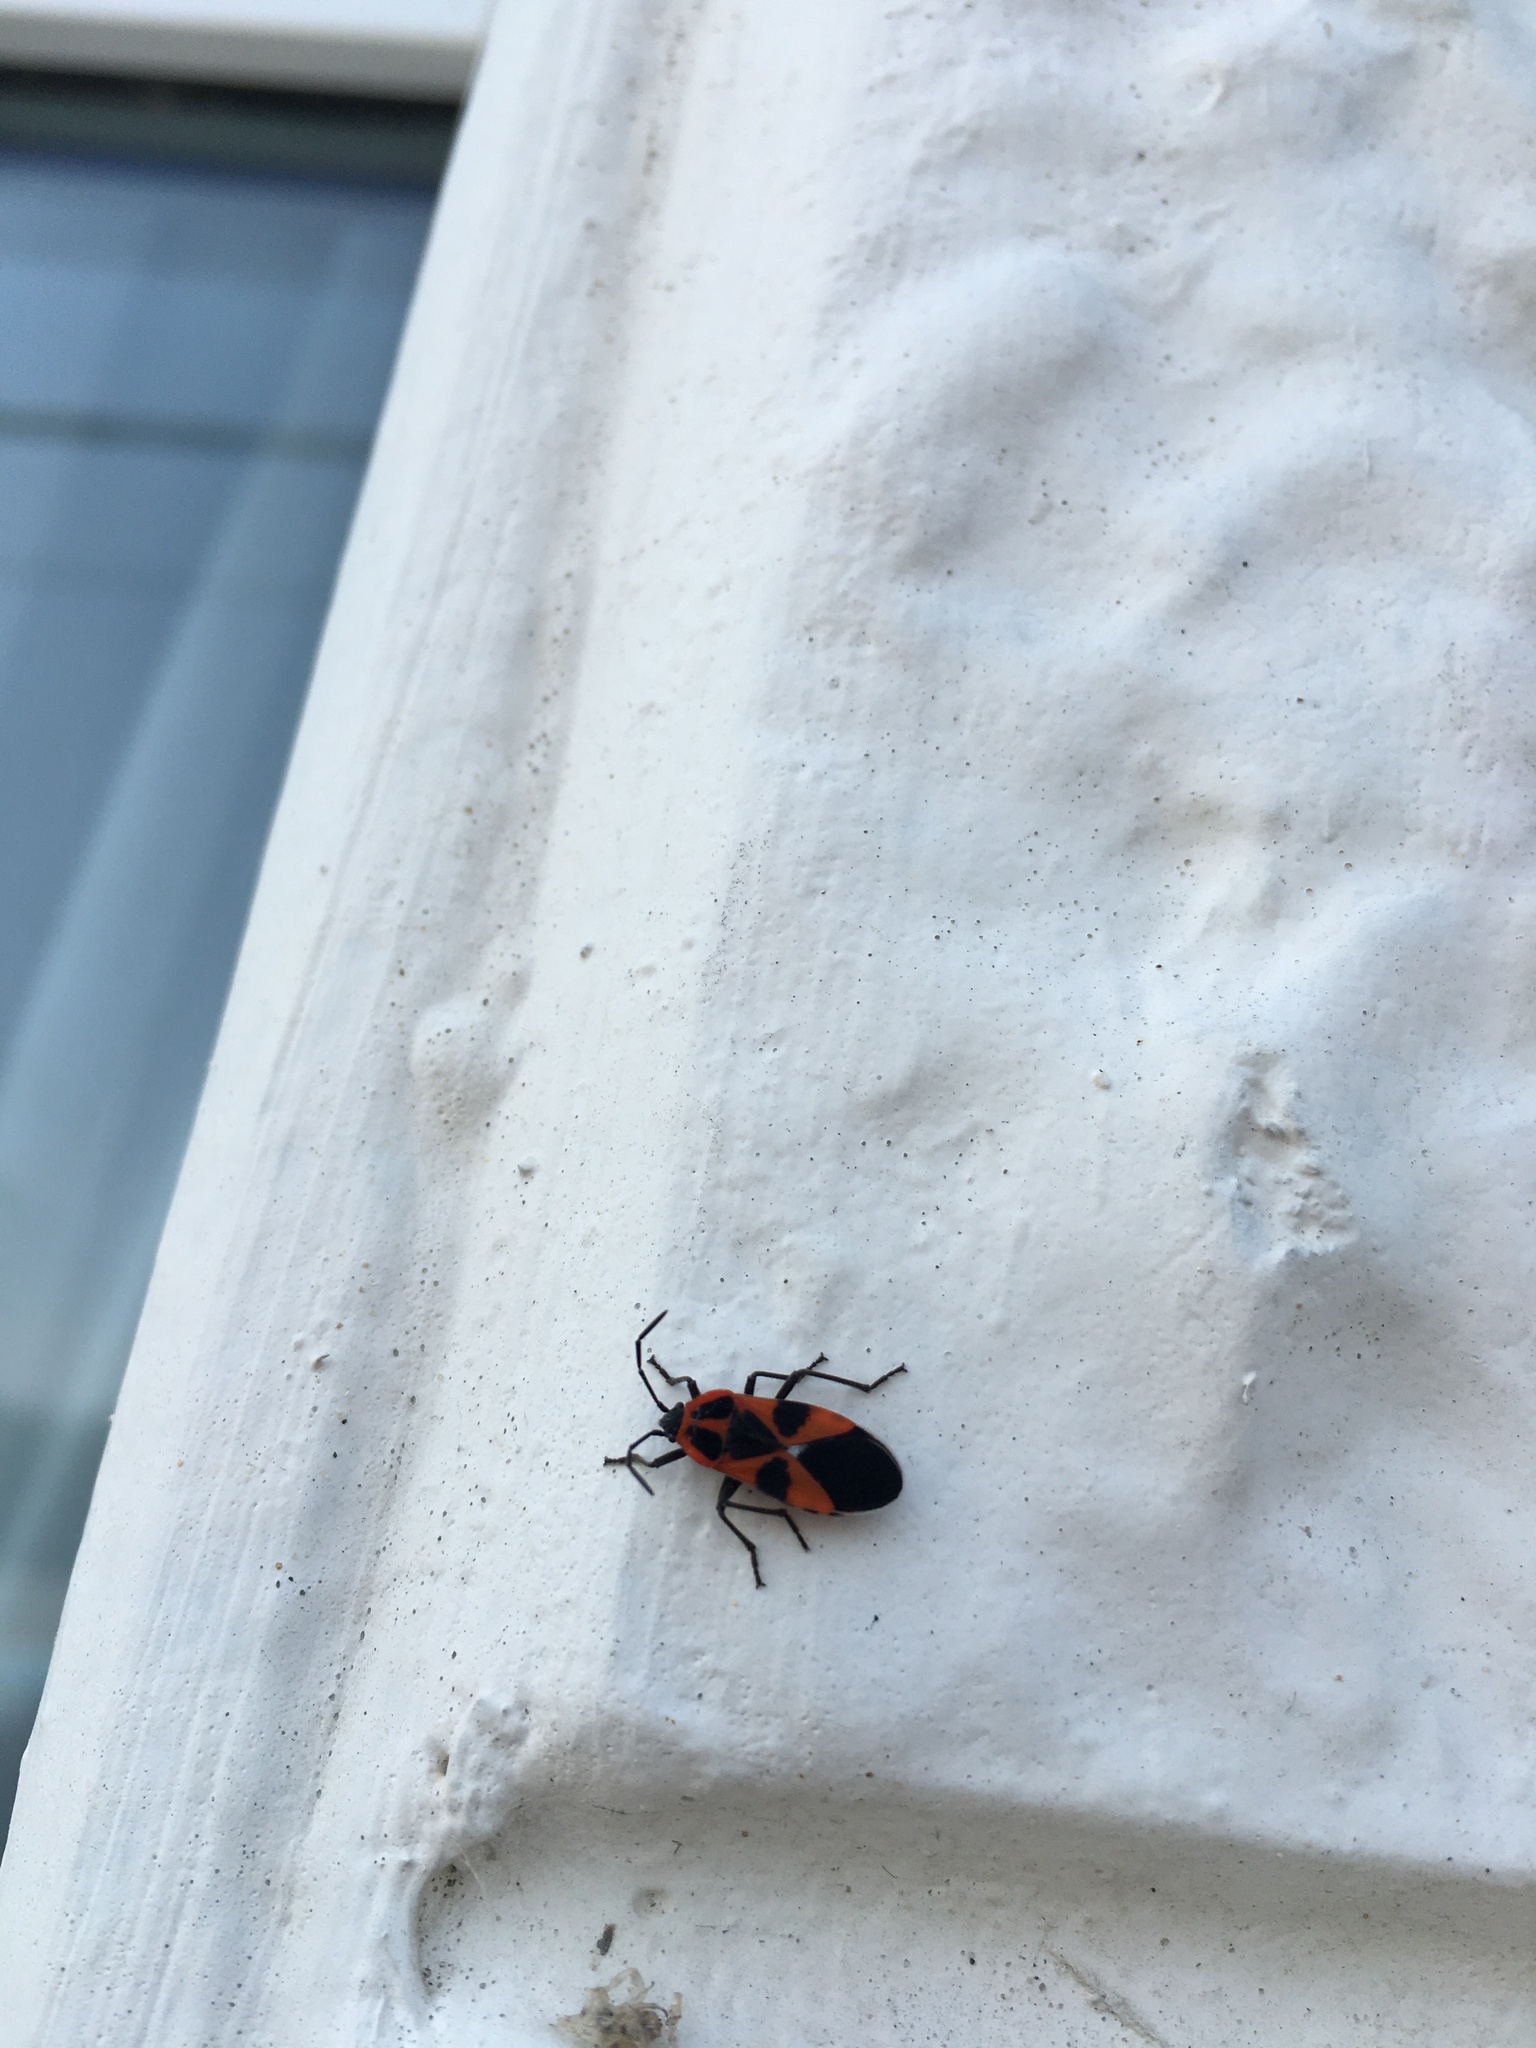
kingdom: Animalia
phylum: Arthropoda
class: Insecta
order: Hemiptera
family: Lygaeidae
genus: Tropidothorax
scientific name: Tropidothorax leucopterus
